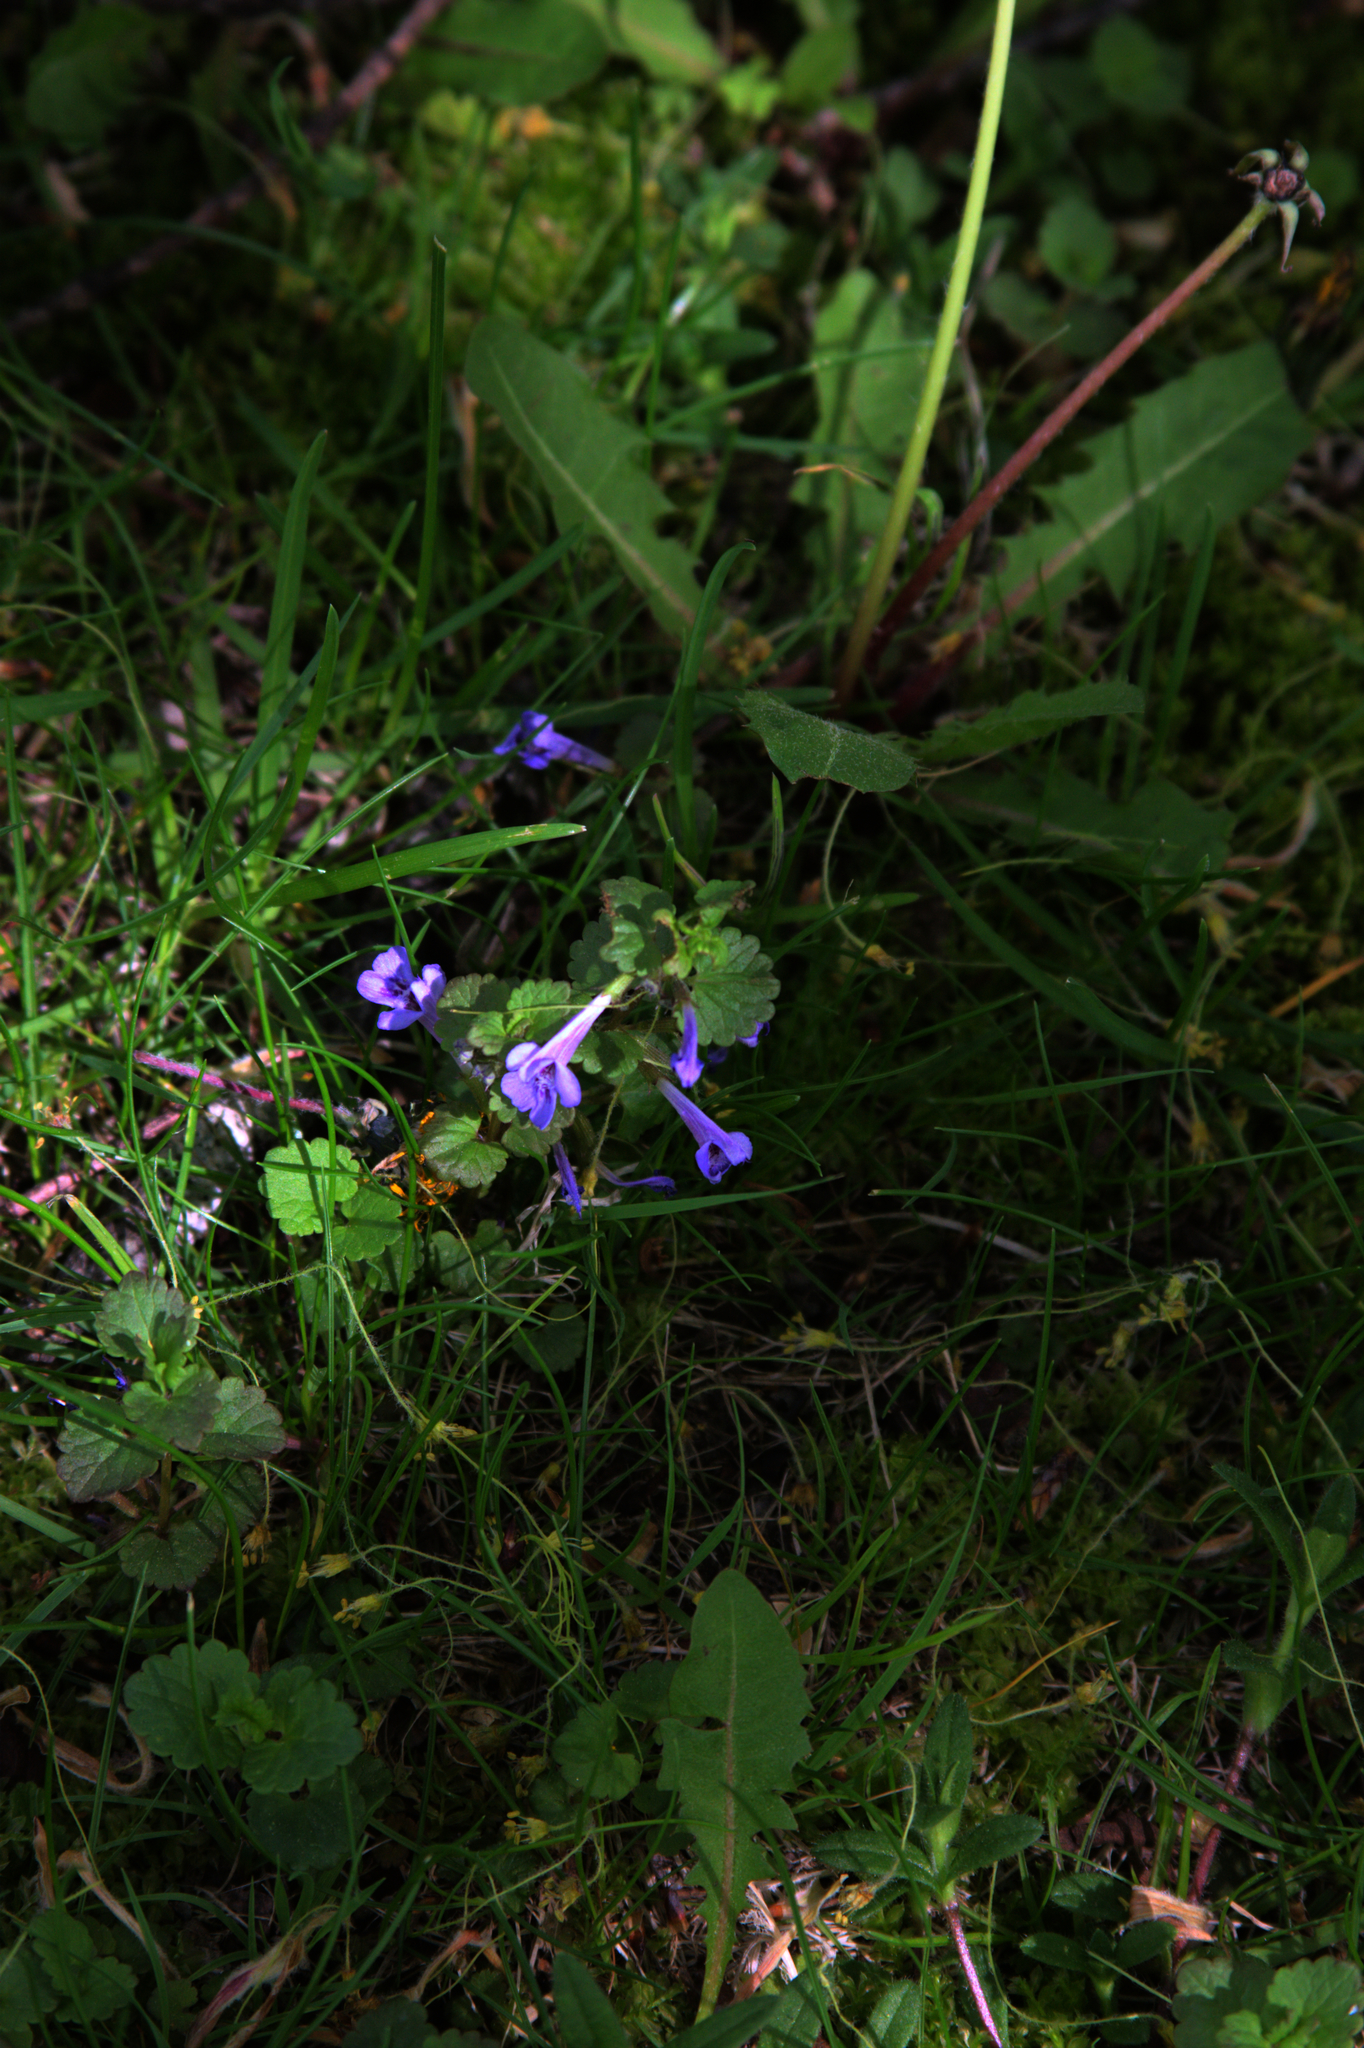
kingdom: Plantae
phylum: Tracheophyta
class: Magnoliopsida
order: Lamiales
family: Lamiaceae
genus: Glechoma
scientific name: Glechoma hederacea
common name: Ground ivy
